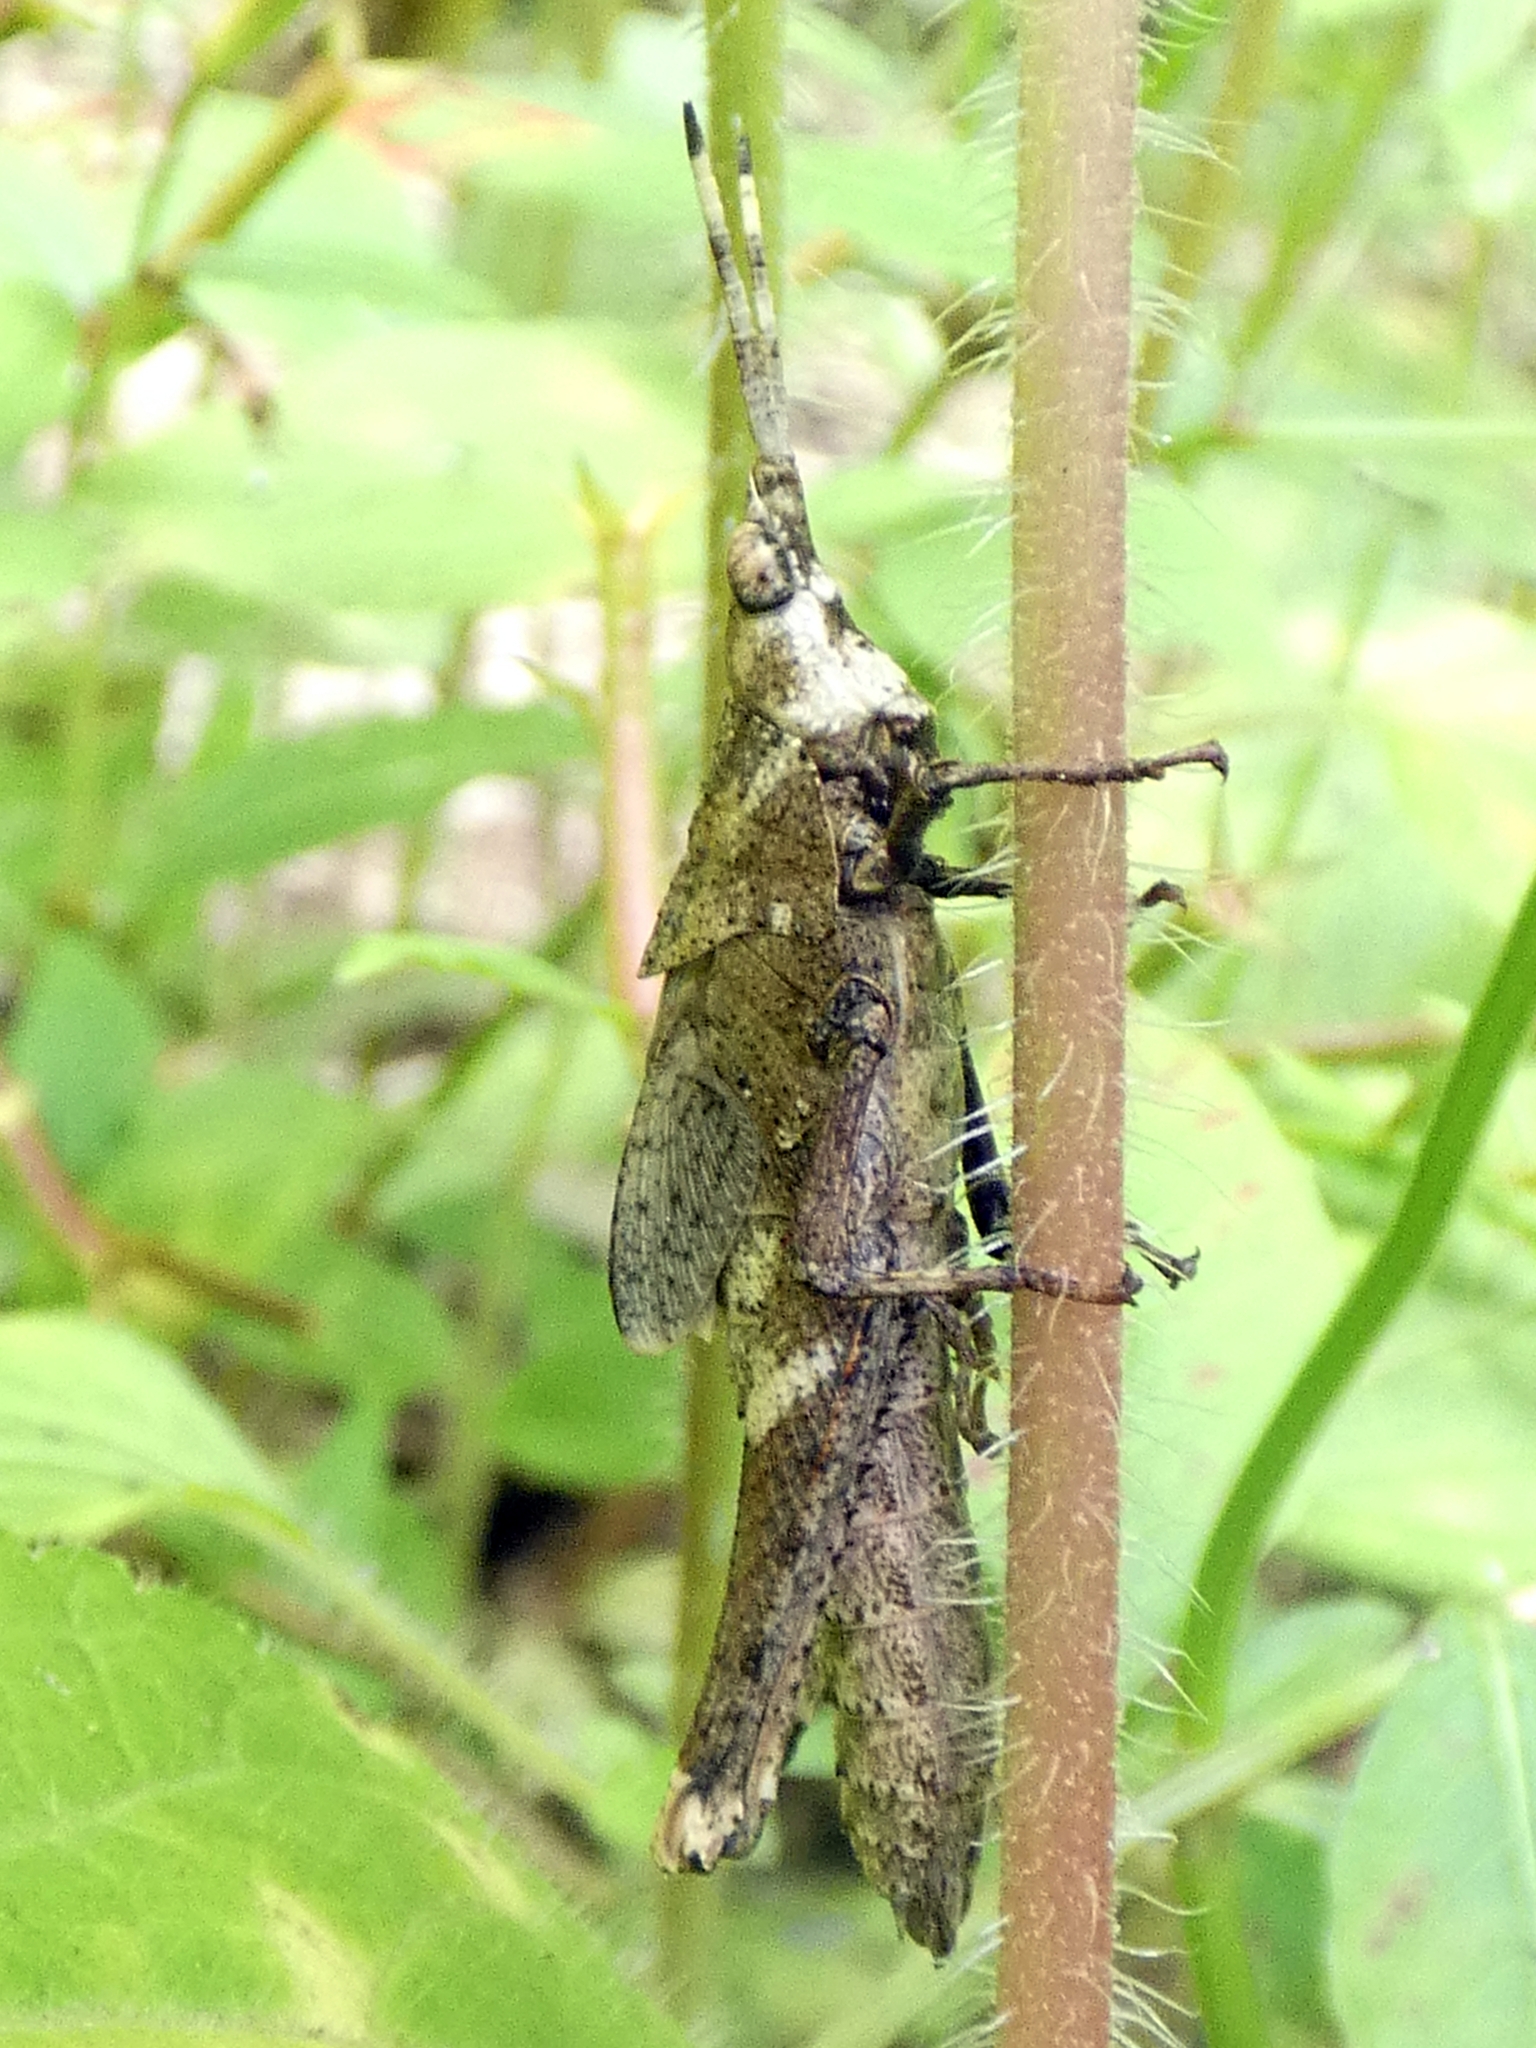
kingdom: Animalia
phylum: Arthropoda
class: Insecta
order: Orthoptera
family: Pyrgomorphidae
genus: Desmoptera
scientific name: Desmoptera truncatipennis
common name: Large forest pyrgomorph
